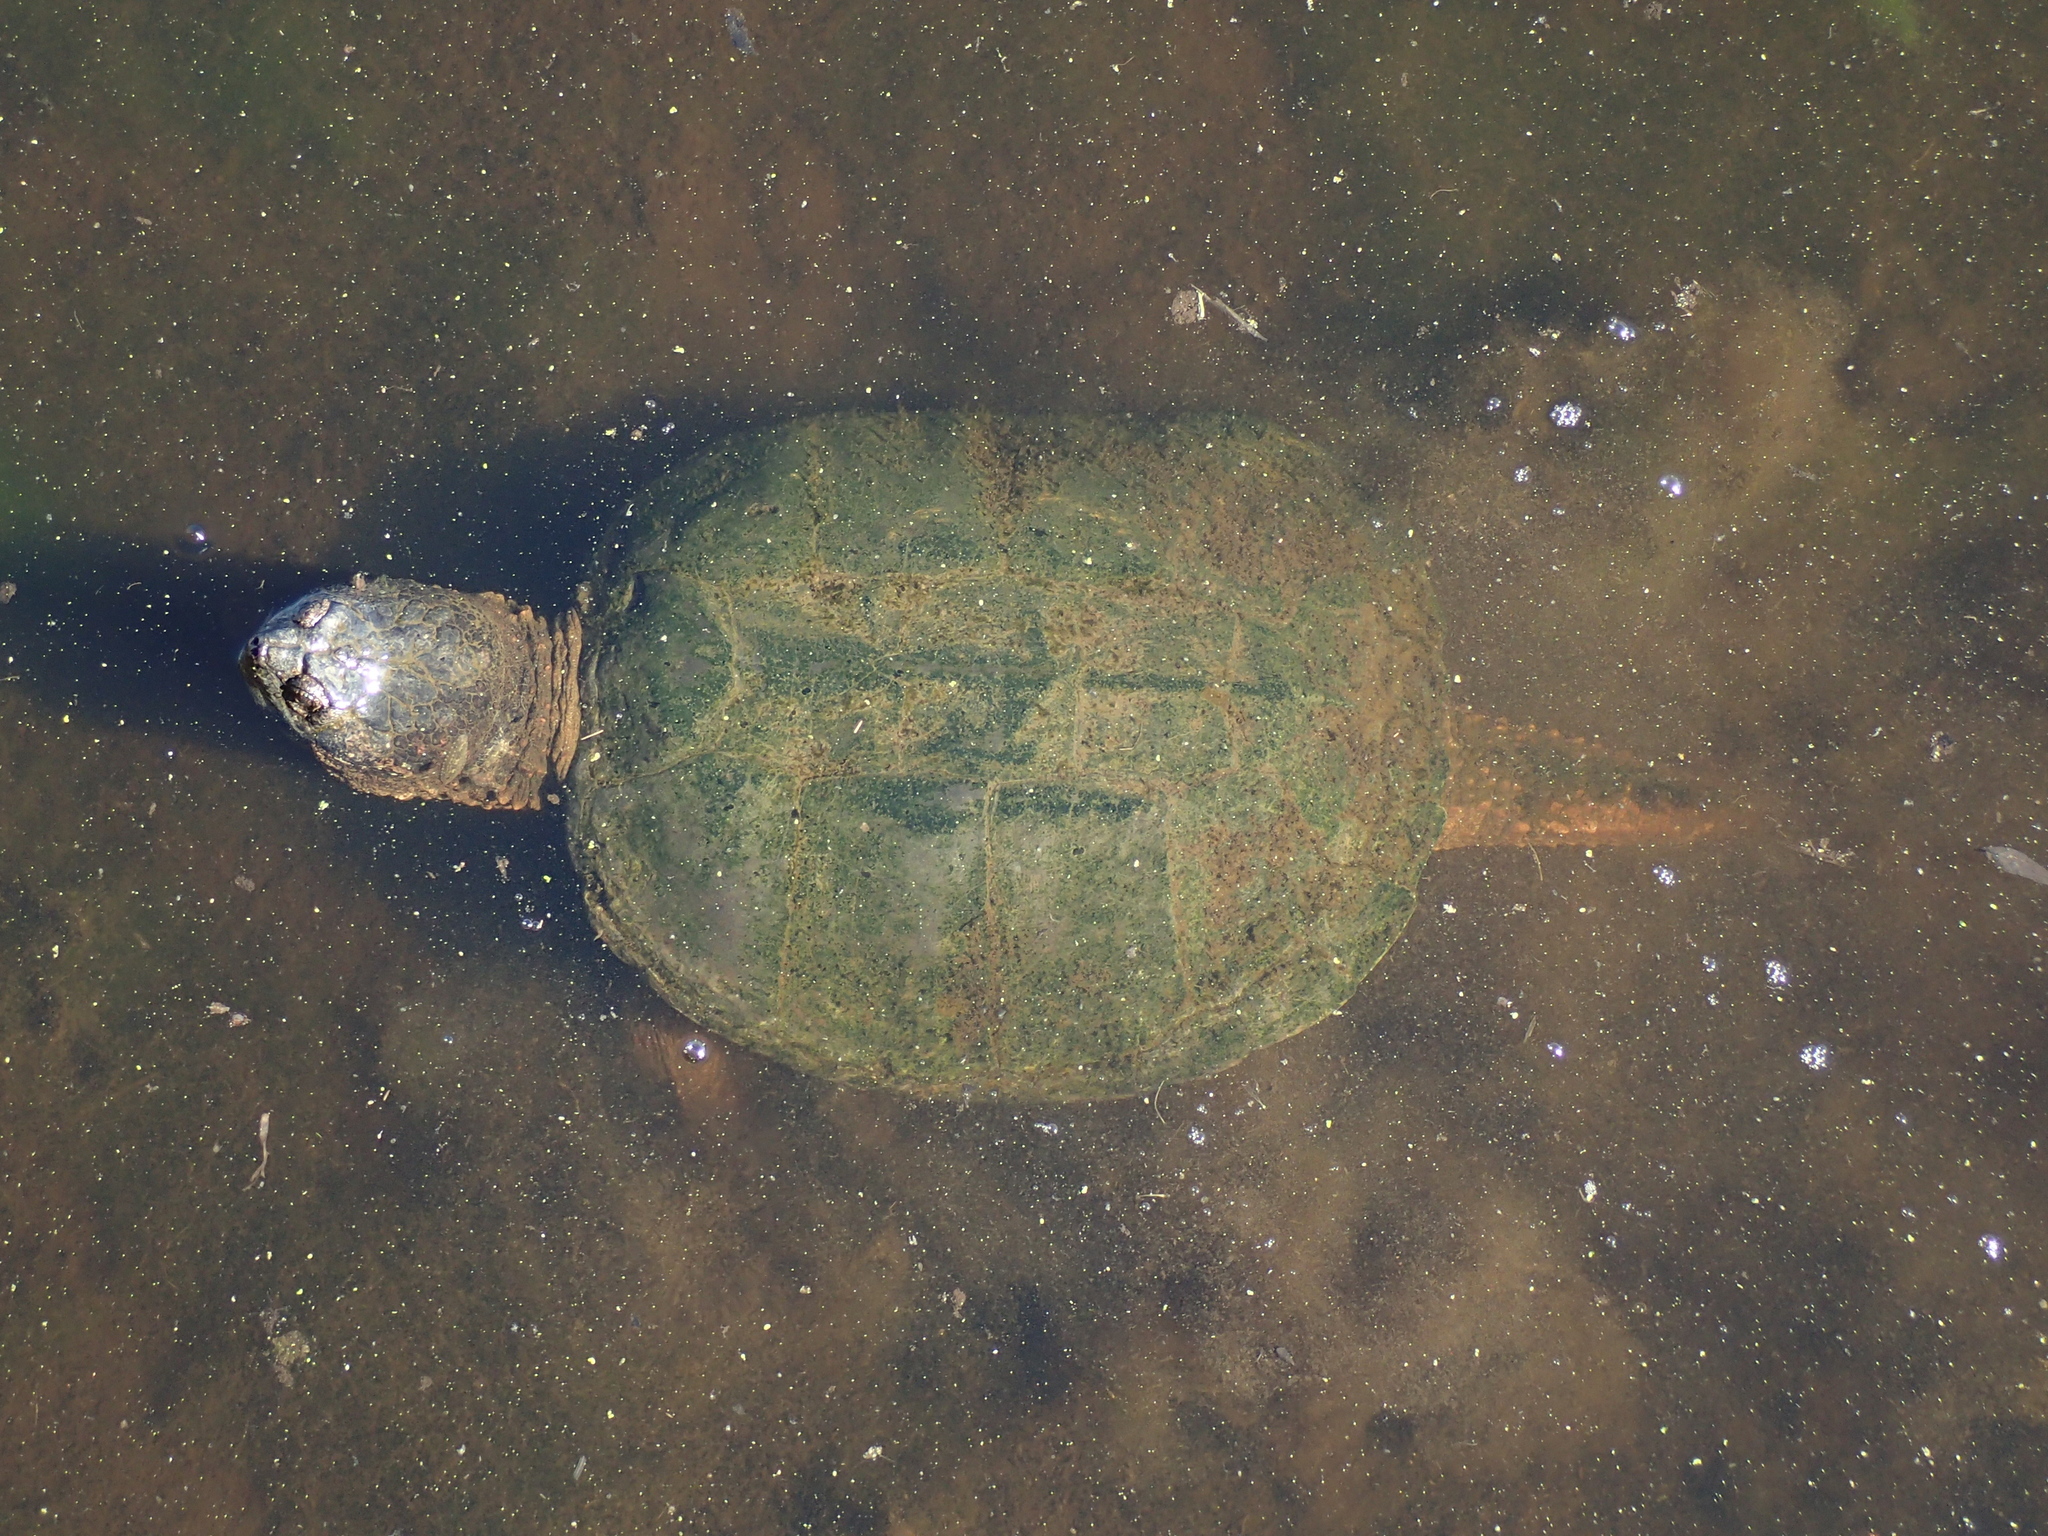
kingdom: Animalia
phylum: Chordata
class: Testudines
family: Chelydridae
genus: Chelydra
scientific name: Chelydra serpentina
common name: Common snapping turtle
